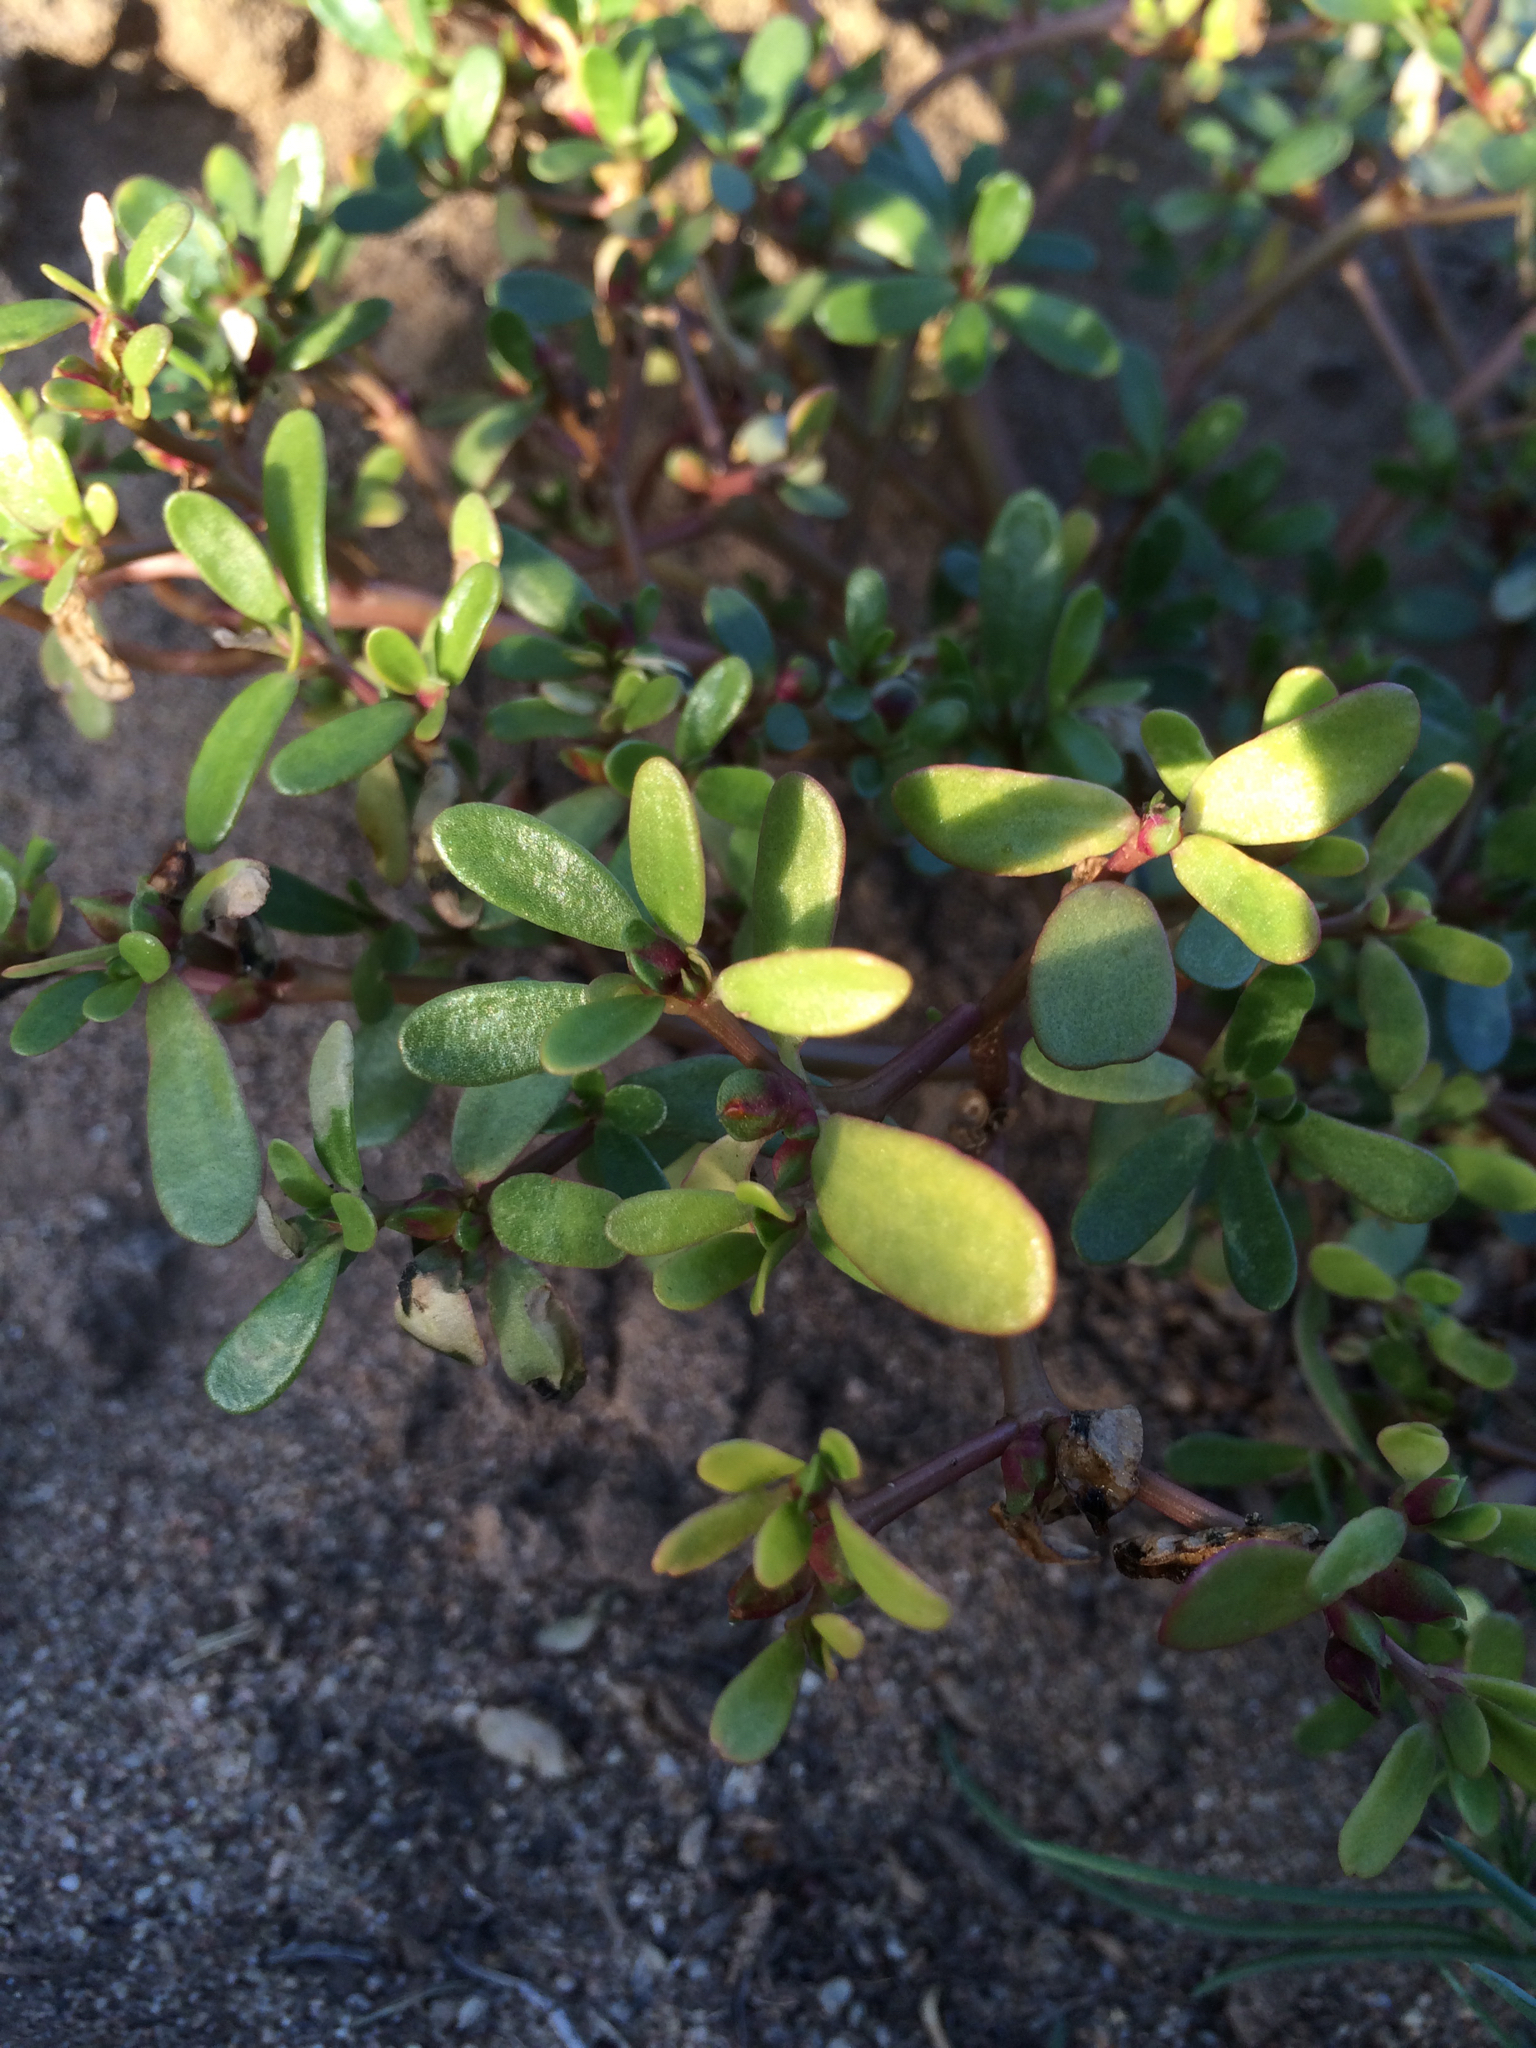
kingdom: Plantae
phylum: Tracheophyta
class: Magnoliopsida
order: Caryophyllales
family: Portulacaceae
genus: Portulaca
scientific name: Portulaca oleracea
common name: Common purslane
